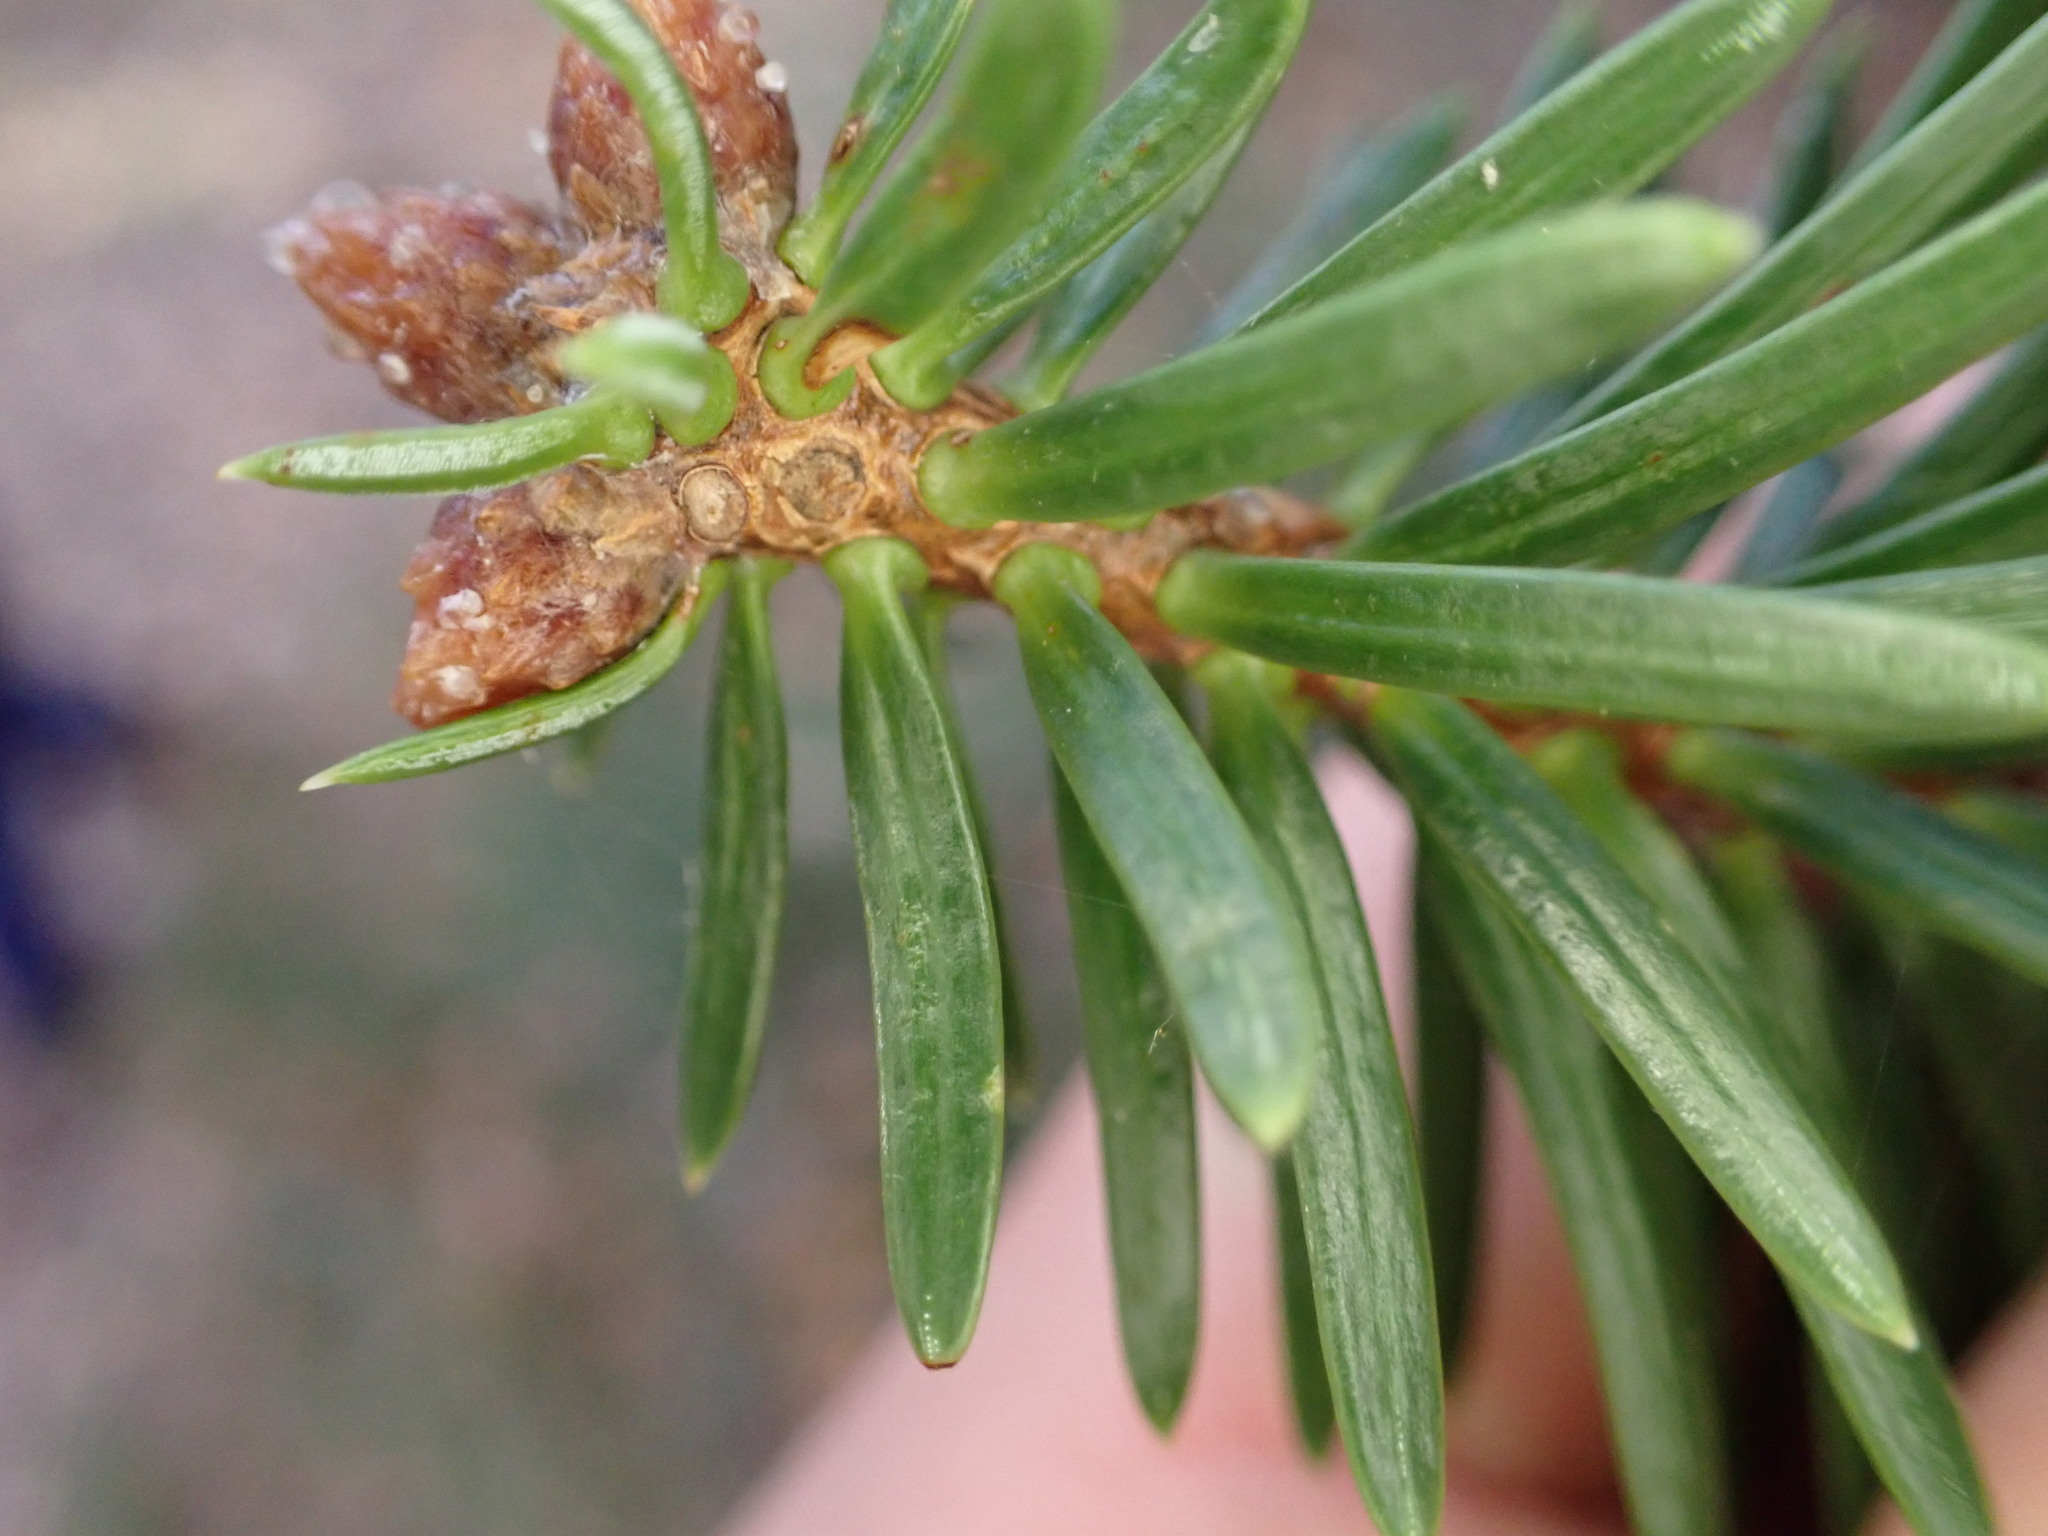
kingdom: Plantae
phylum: Tracheophyta
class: Pinopsida
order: Pinales
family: Pinaceae
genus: Abies
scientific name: Abies pinsapo
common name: Spanish fir
